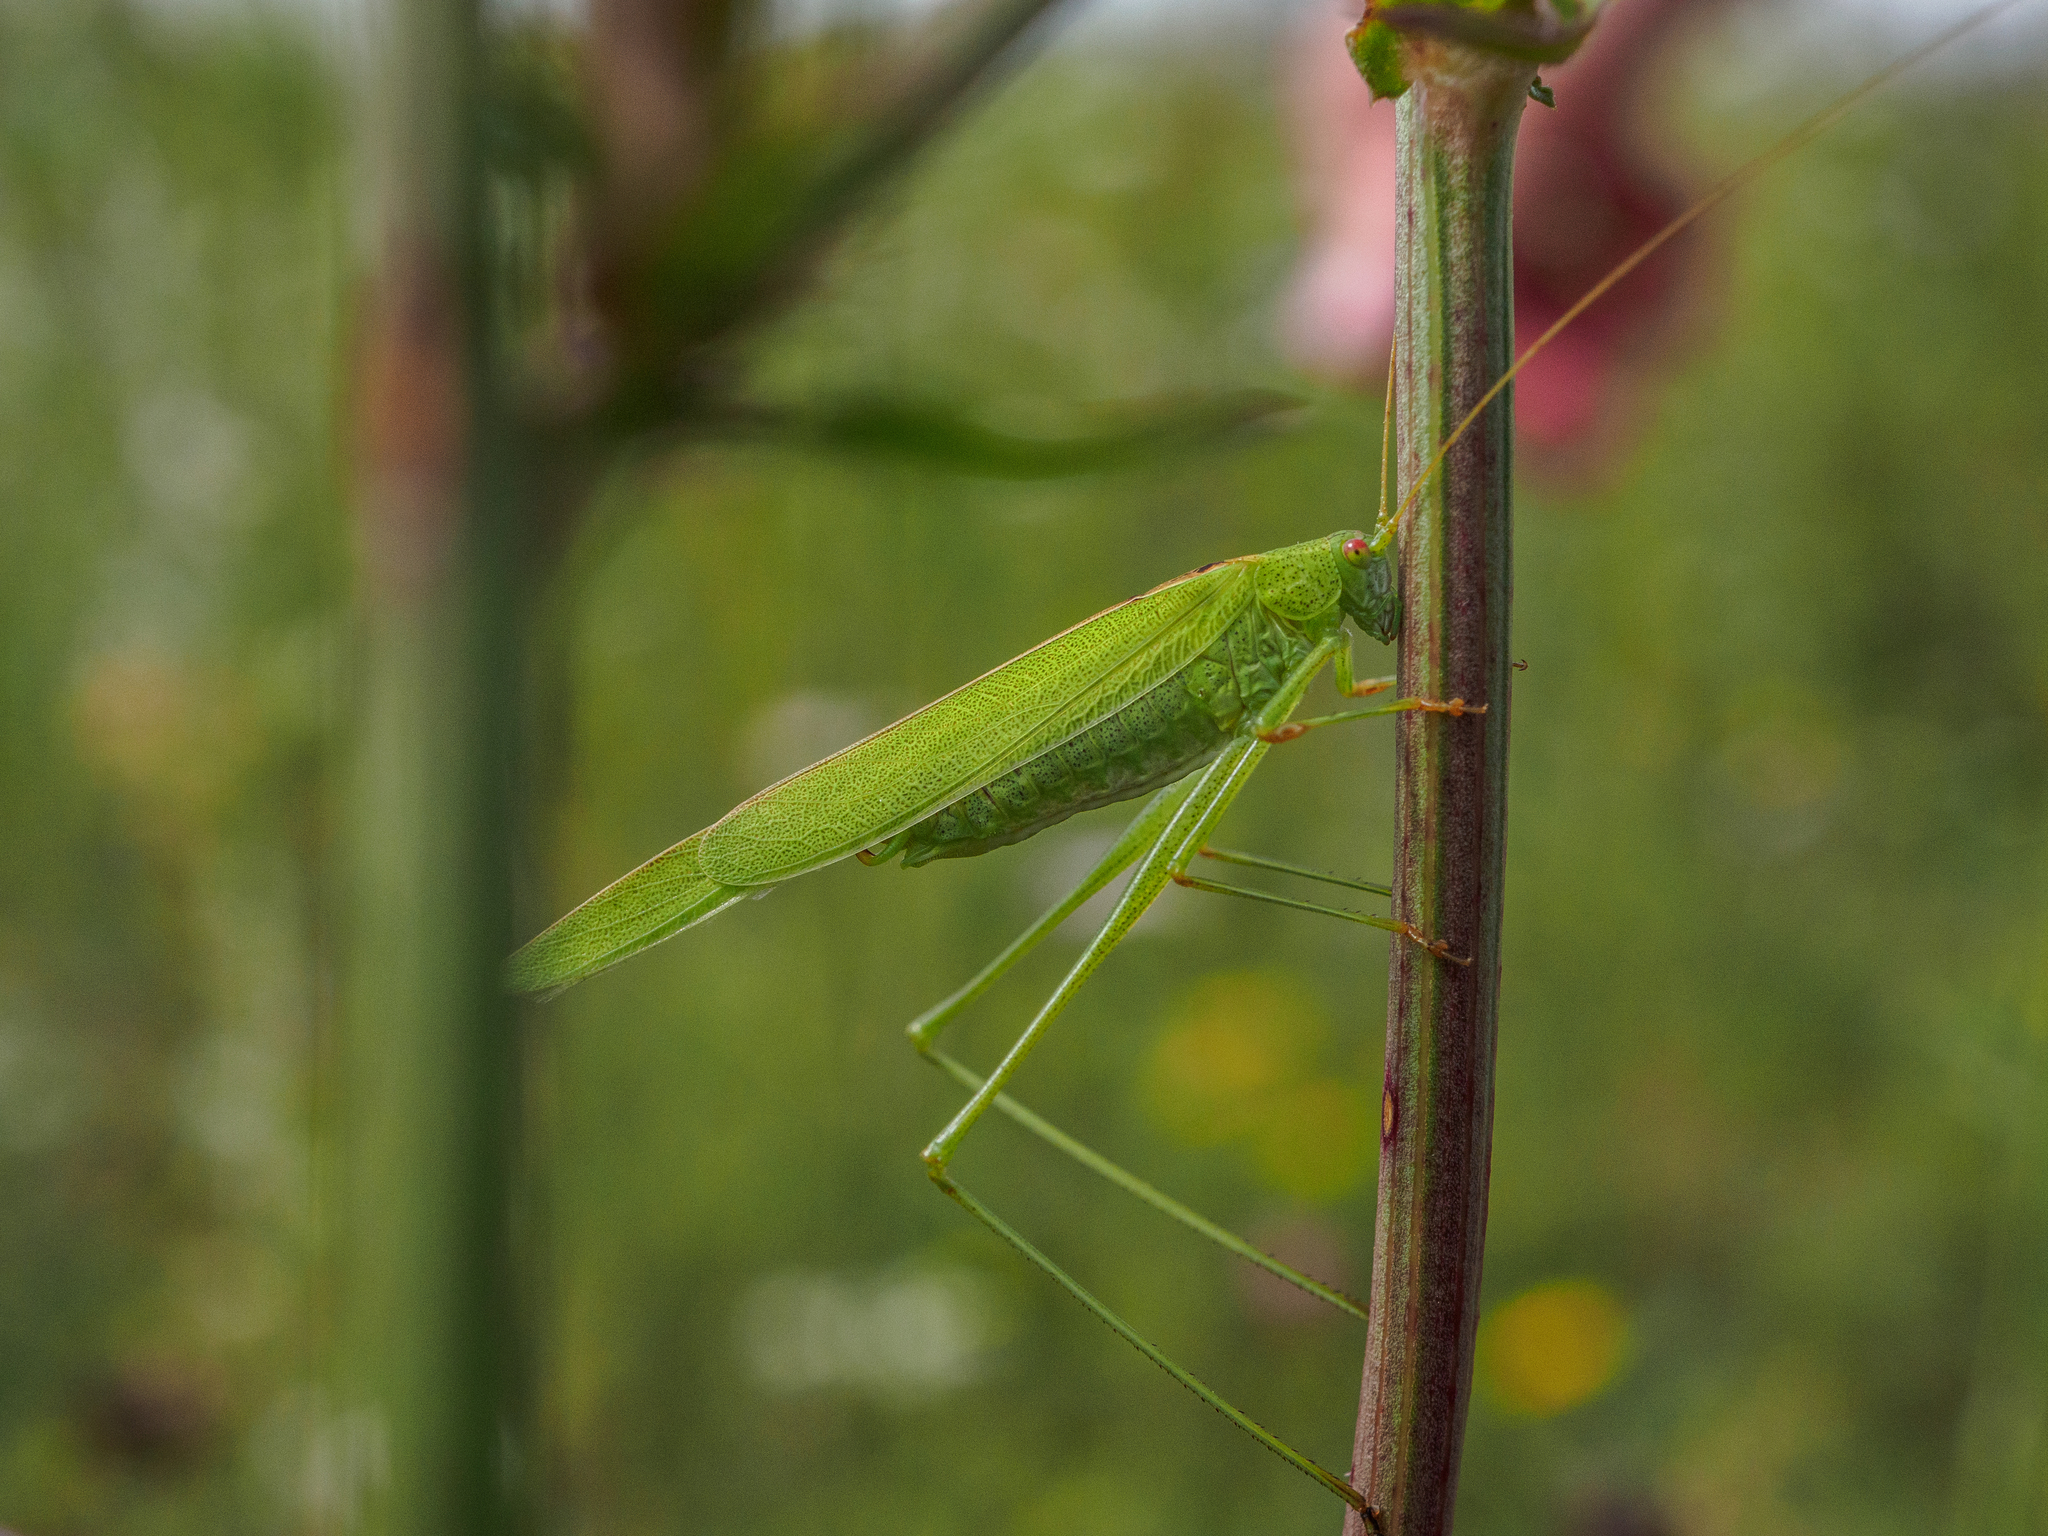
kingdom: Animalia
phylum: Arthropoda
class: Insecta
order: Orthoptera
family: Tettigoniidae
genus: Phaneroptera
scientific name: Phaneroptera falcata
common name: Sickle-bearing bush-cricket
